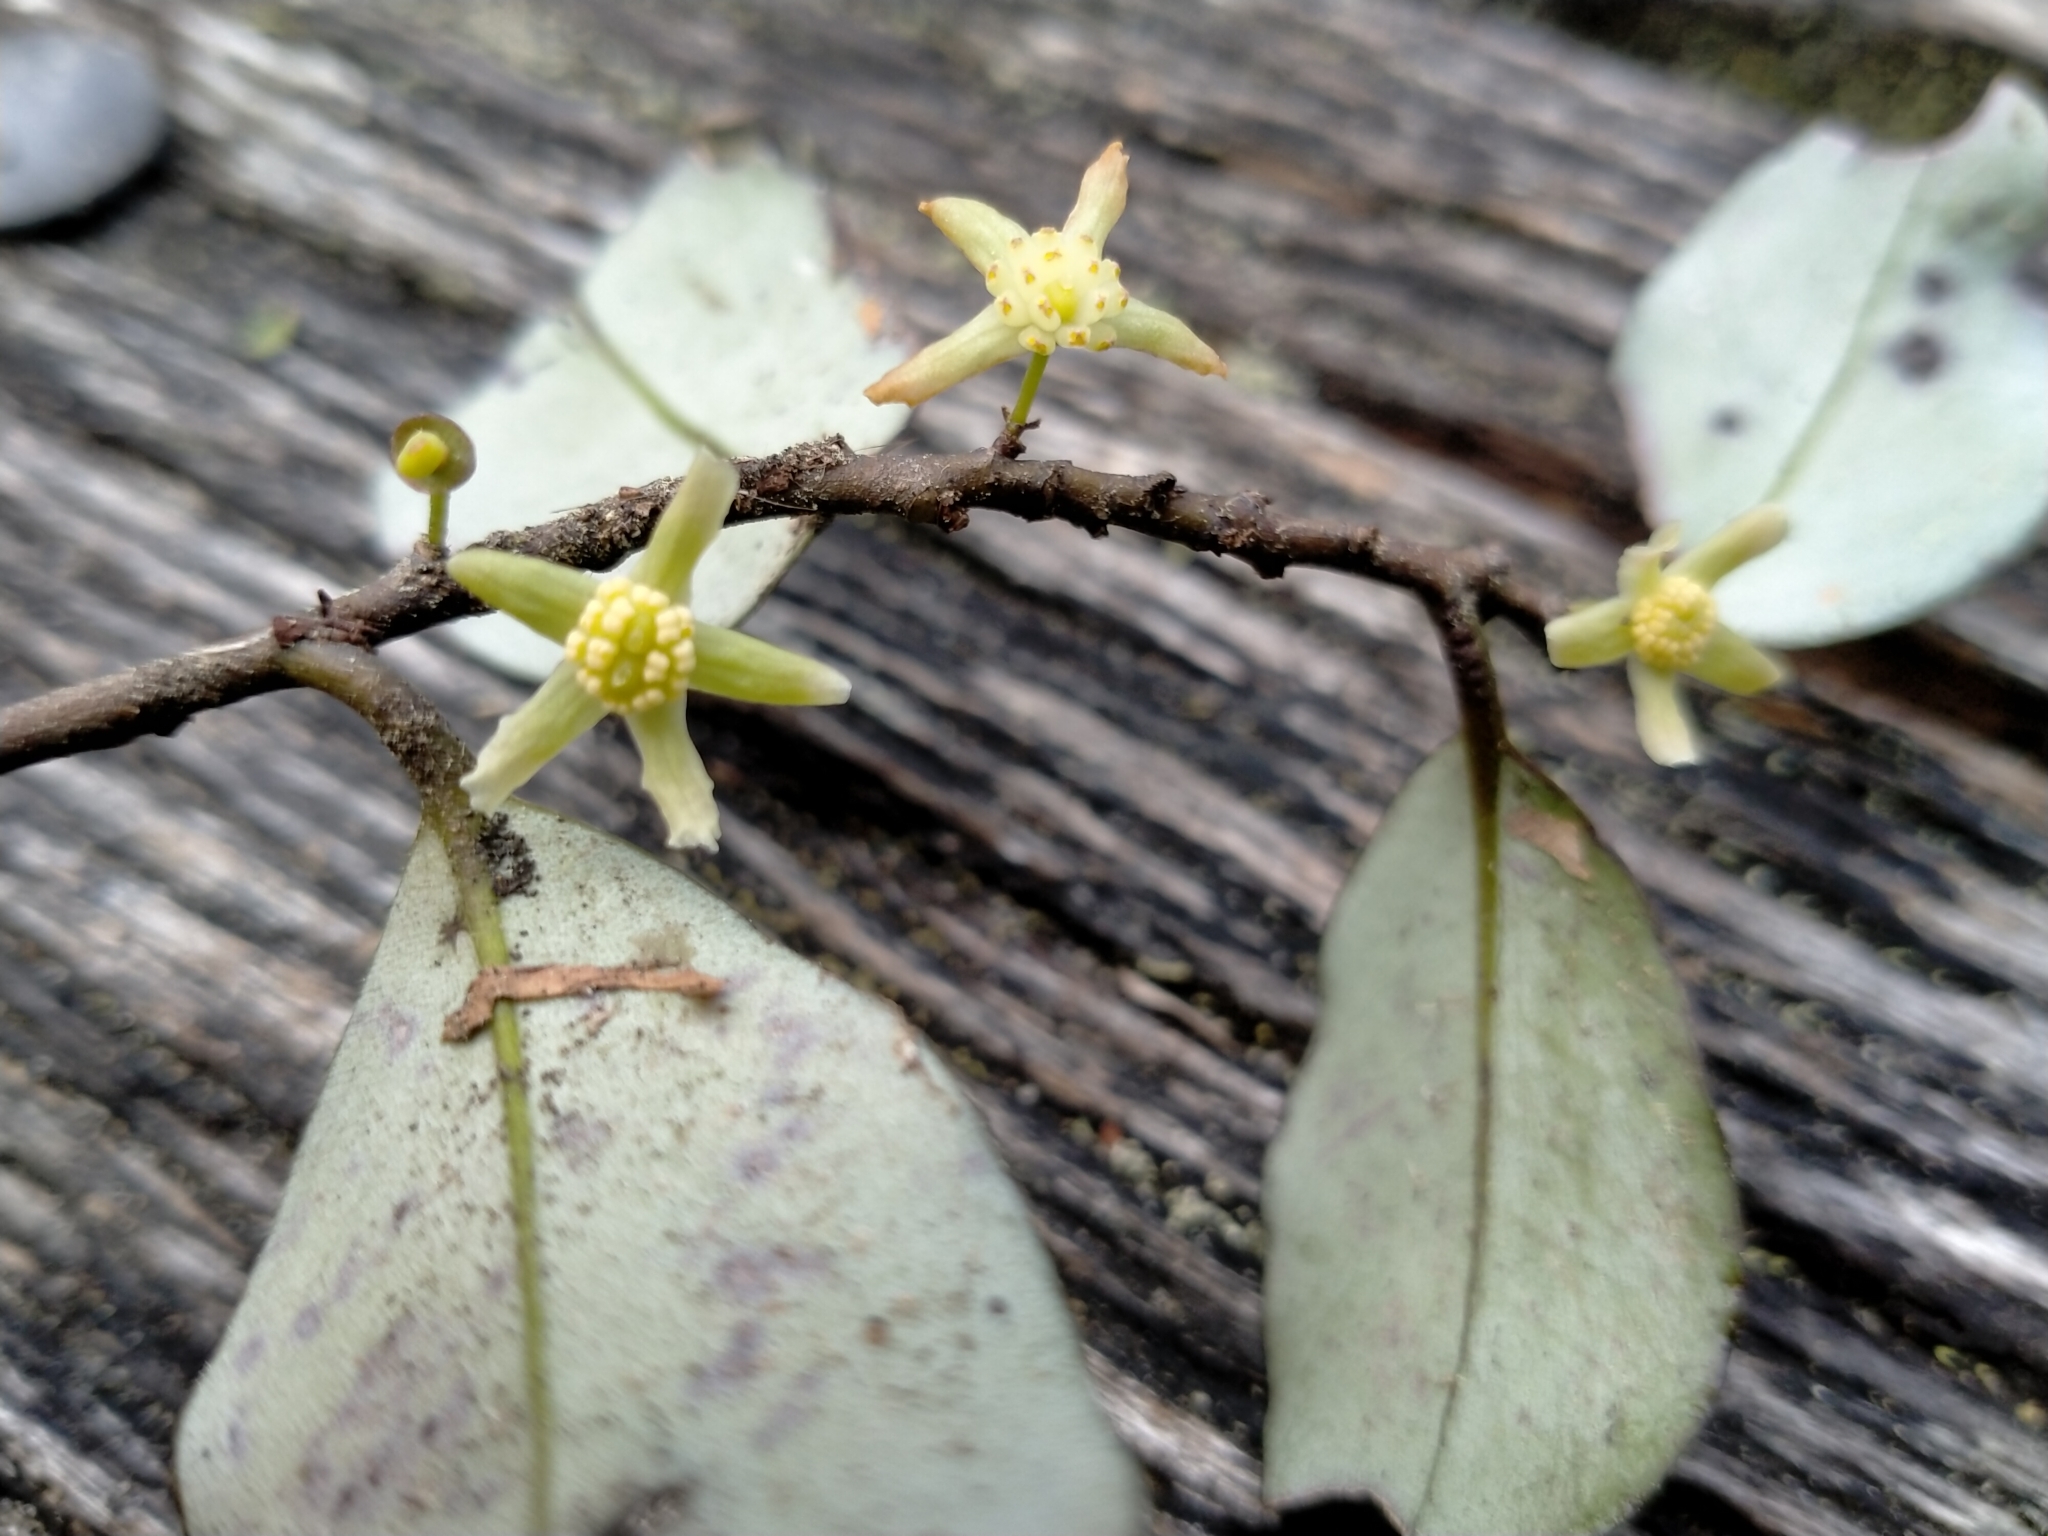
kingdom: Plantae
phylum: Tracheophyta
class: Magnoliopsida
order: Canellales
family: Winteraceae
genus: Pseudowintera
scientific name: Pseudowintera colorata
